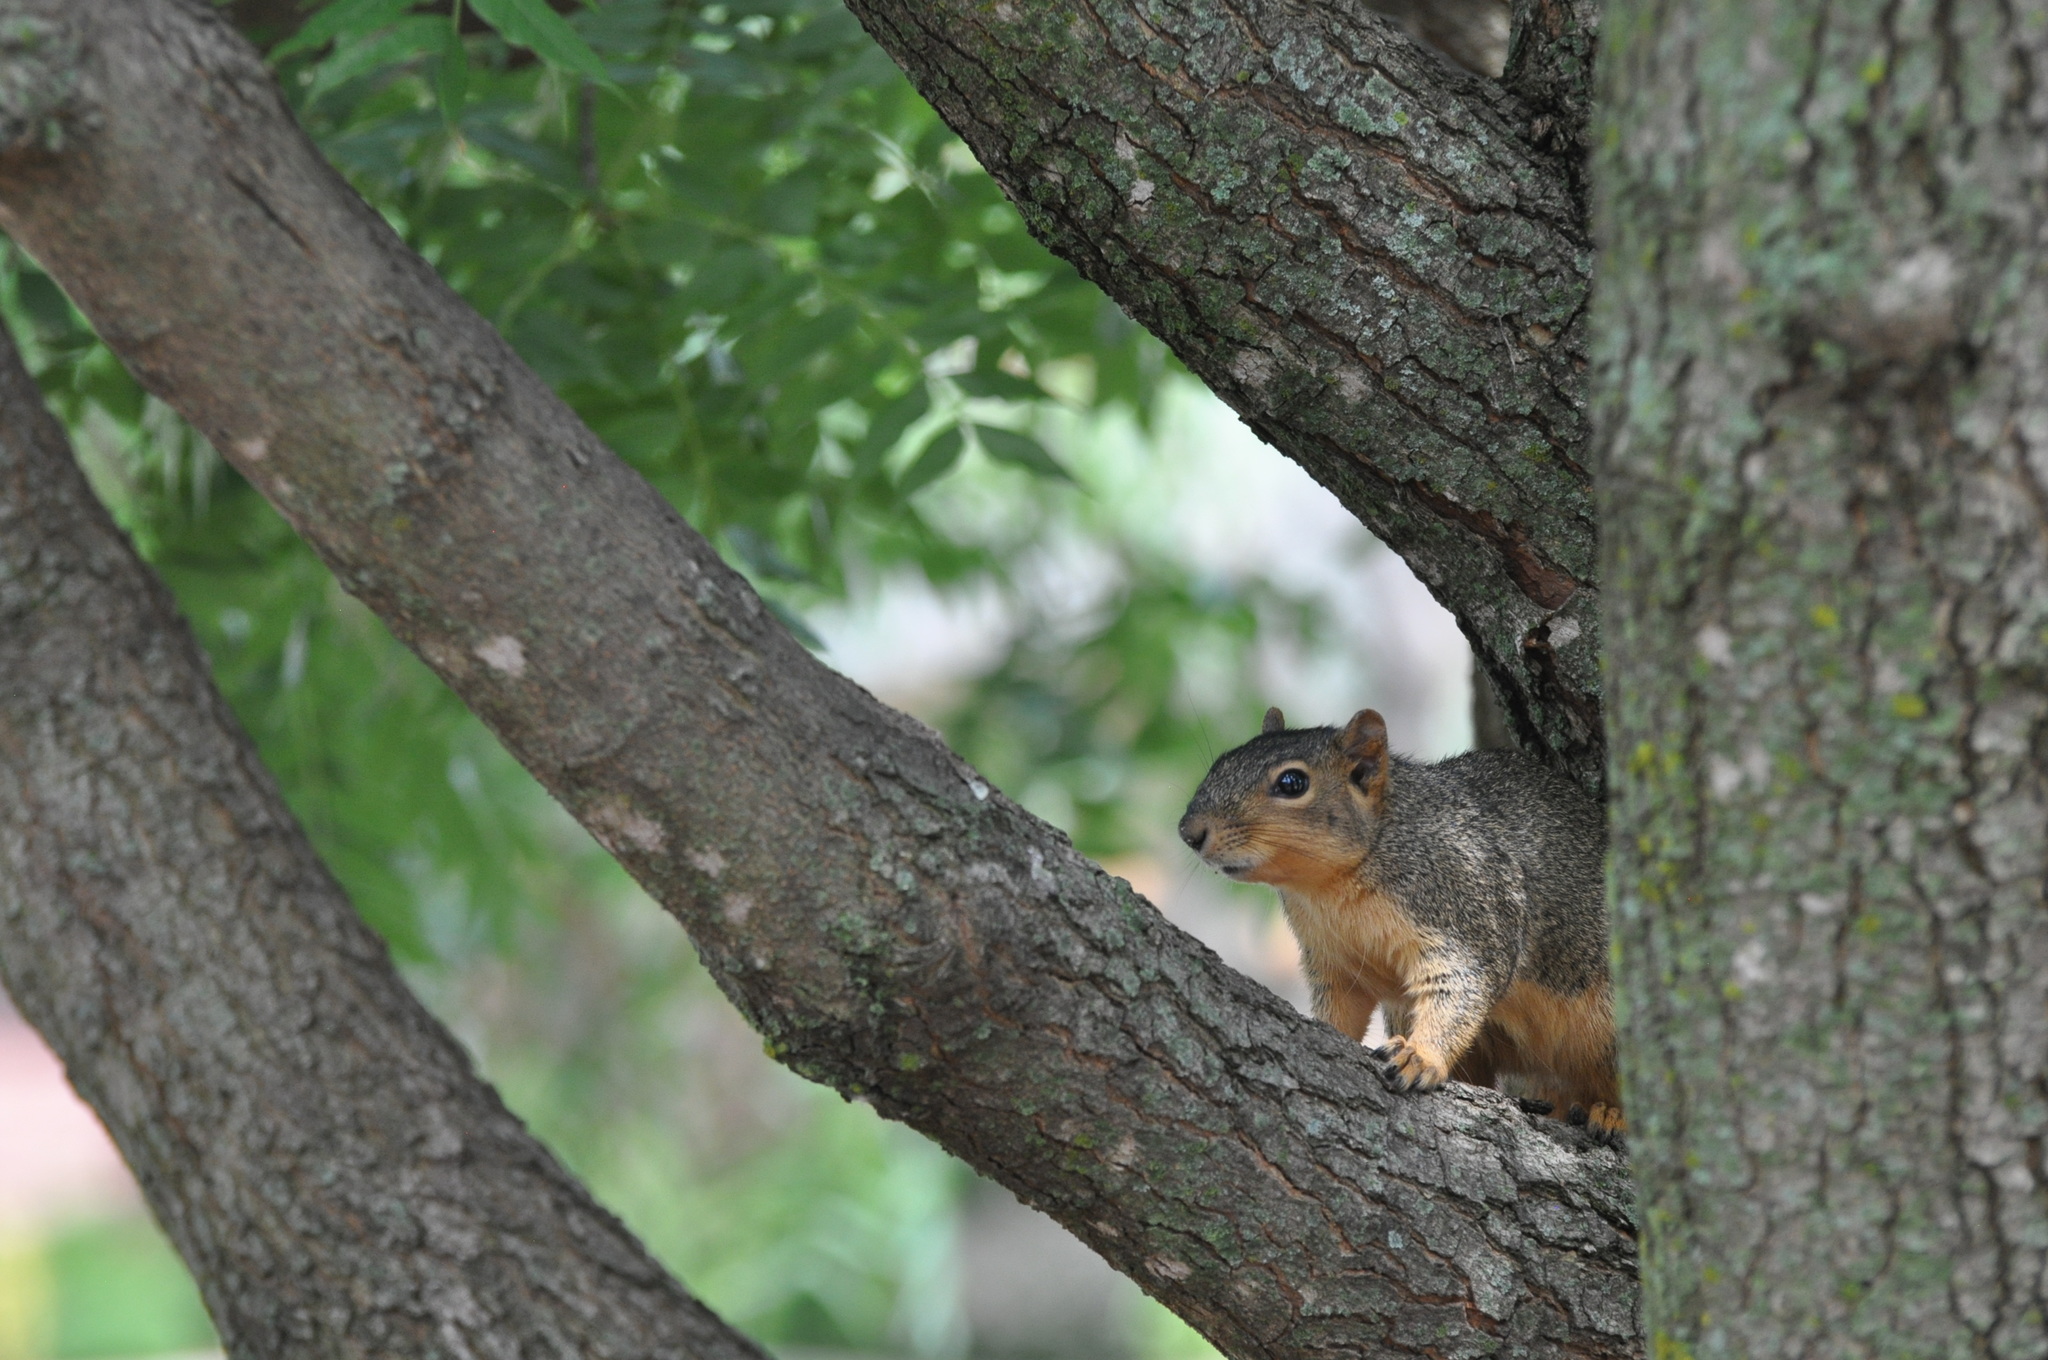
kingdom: Animalia
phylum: Chordata
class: Mammalia
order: Rodentia
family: Sciuridae
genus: Sciurus
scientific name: Sciurus niger
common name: Fox squirrel
